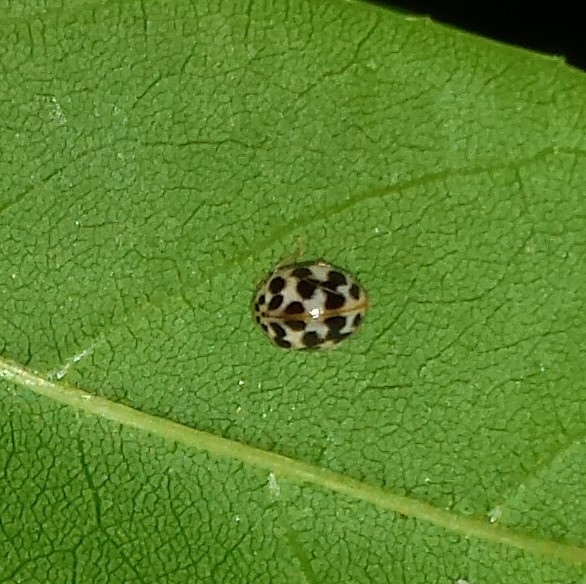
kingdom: Animalia
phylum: Arthropoda
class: Insecta
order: Coleoptera
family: Coccinellidae
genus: Psyllobora
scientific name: Psyllobora vigintimaculata
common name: Ladybird beetle
